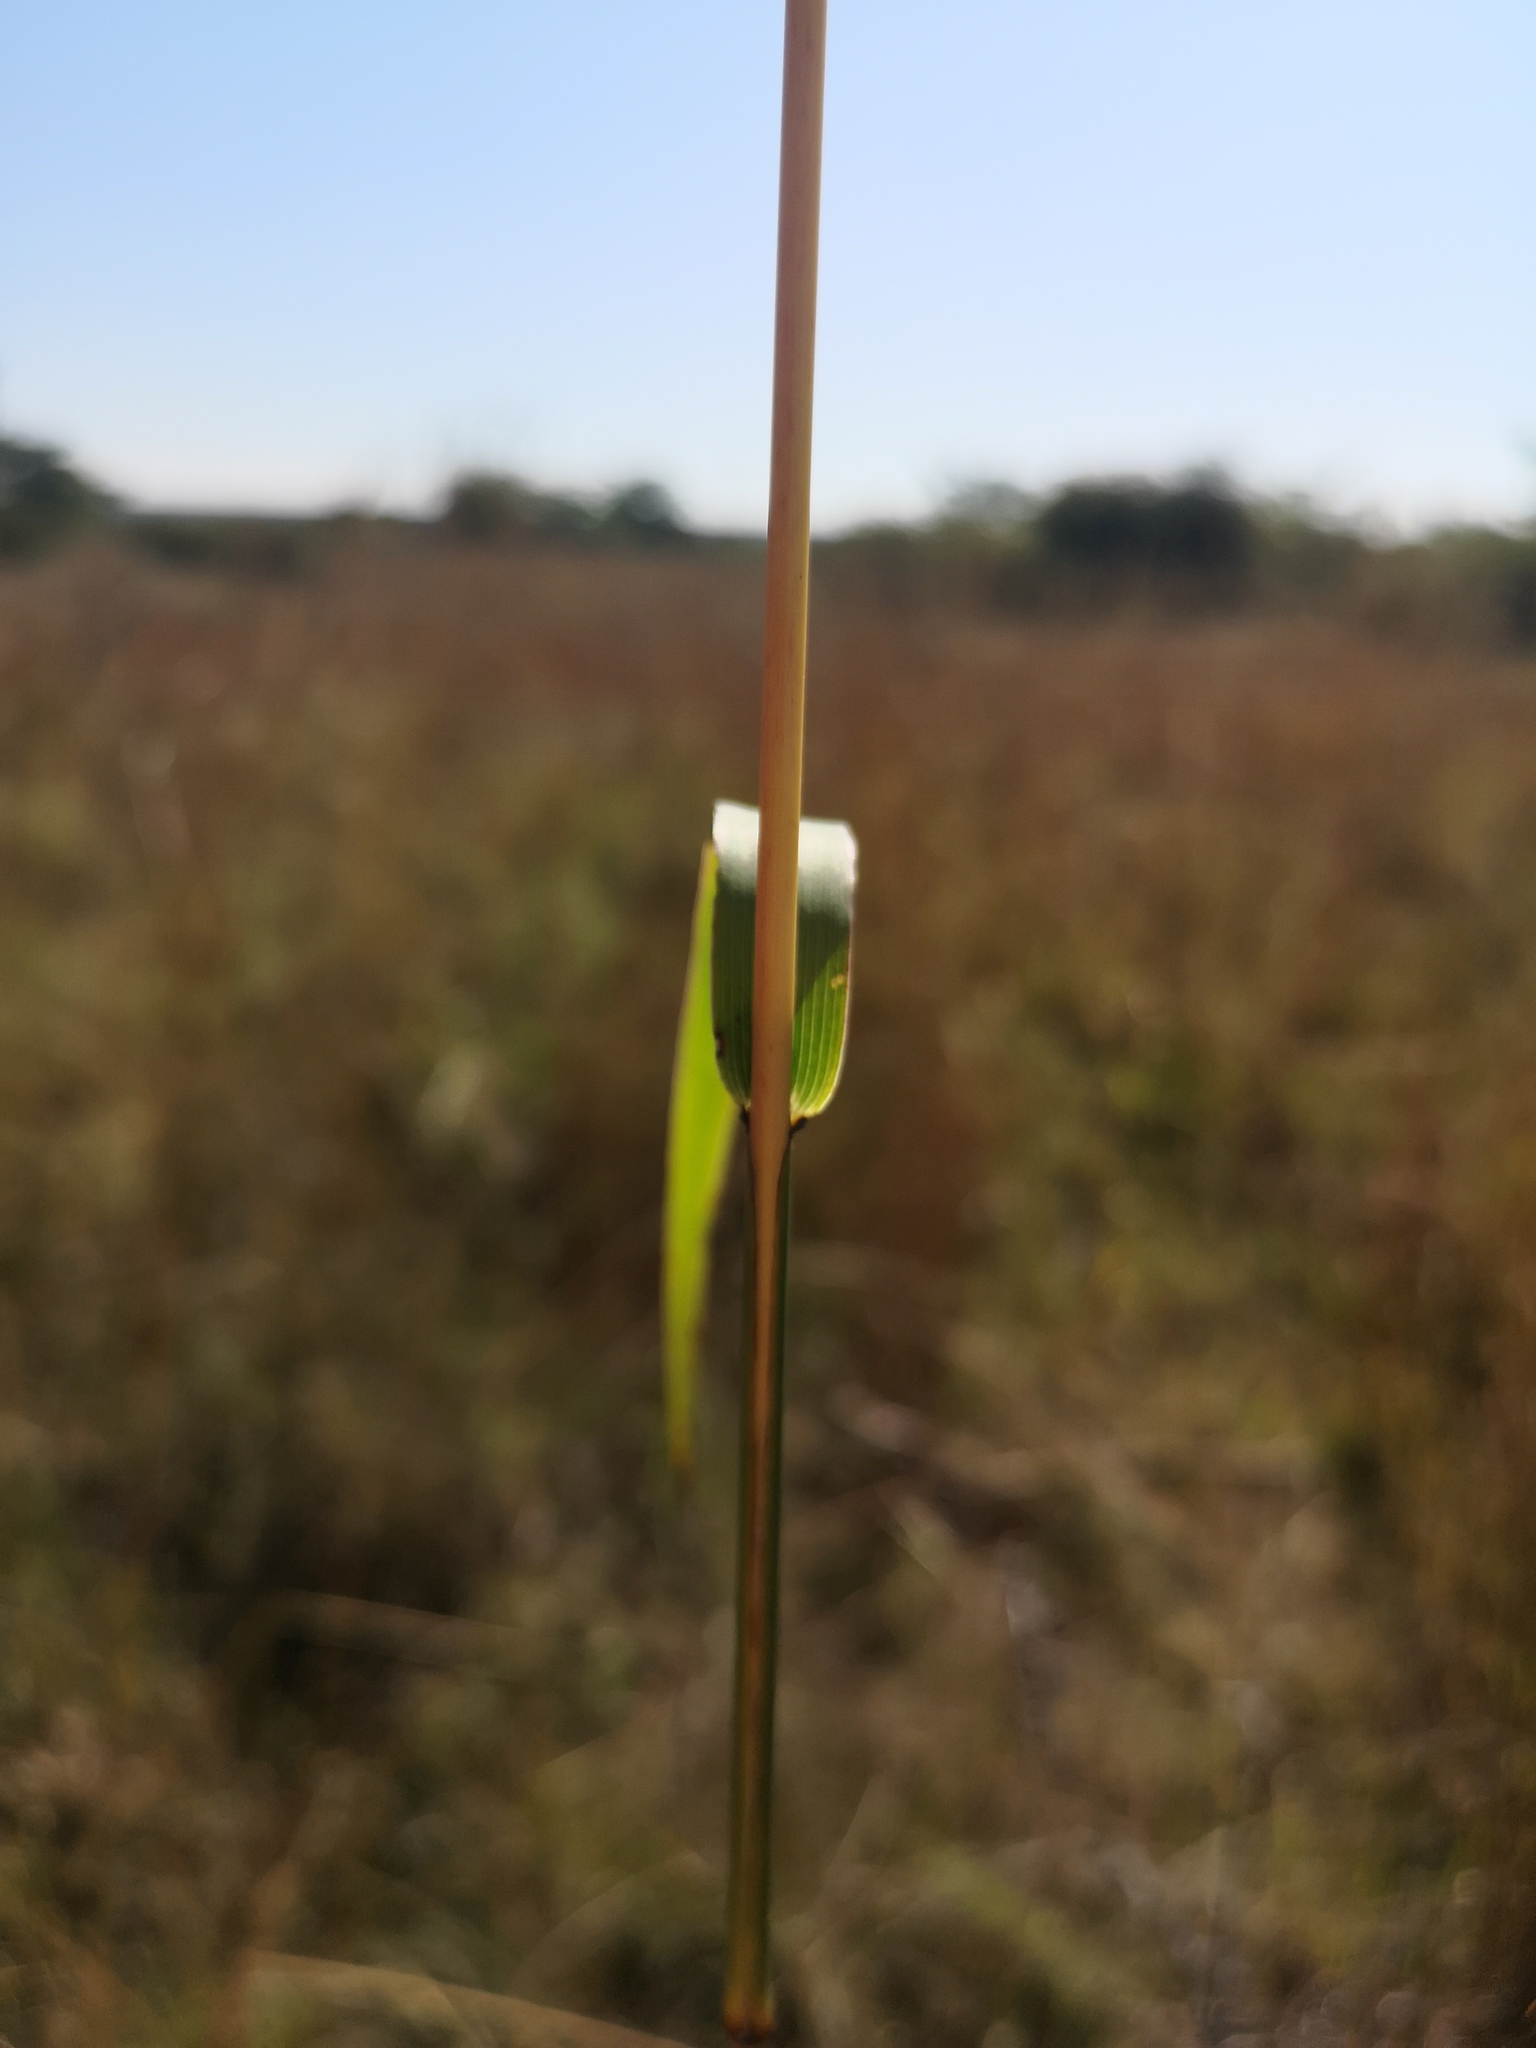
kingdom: Plantae
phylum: Tracheophyta
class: Liliopsida
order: Poales
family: Poaceae
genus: Cymbopogon
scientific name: Cymbopogon caesius
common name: Kachi grass
